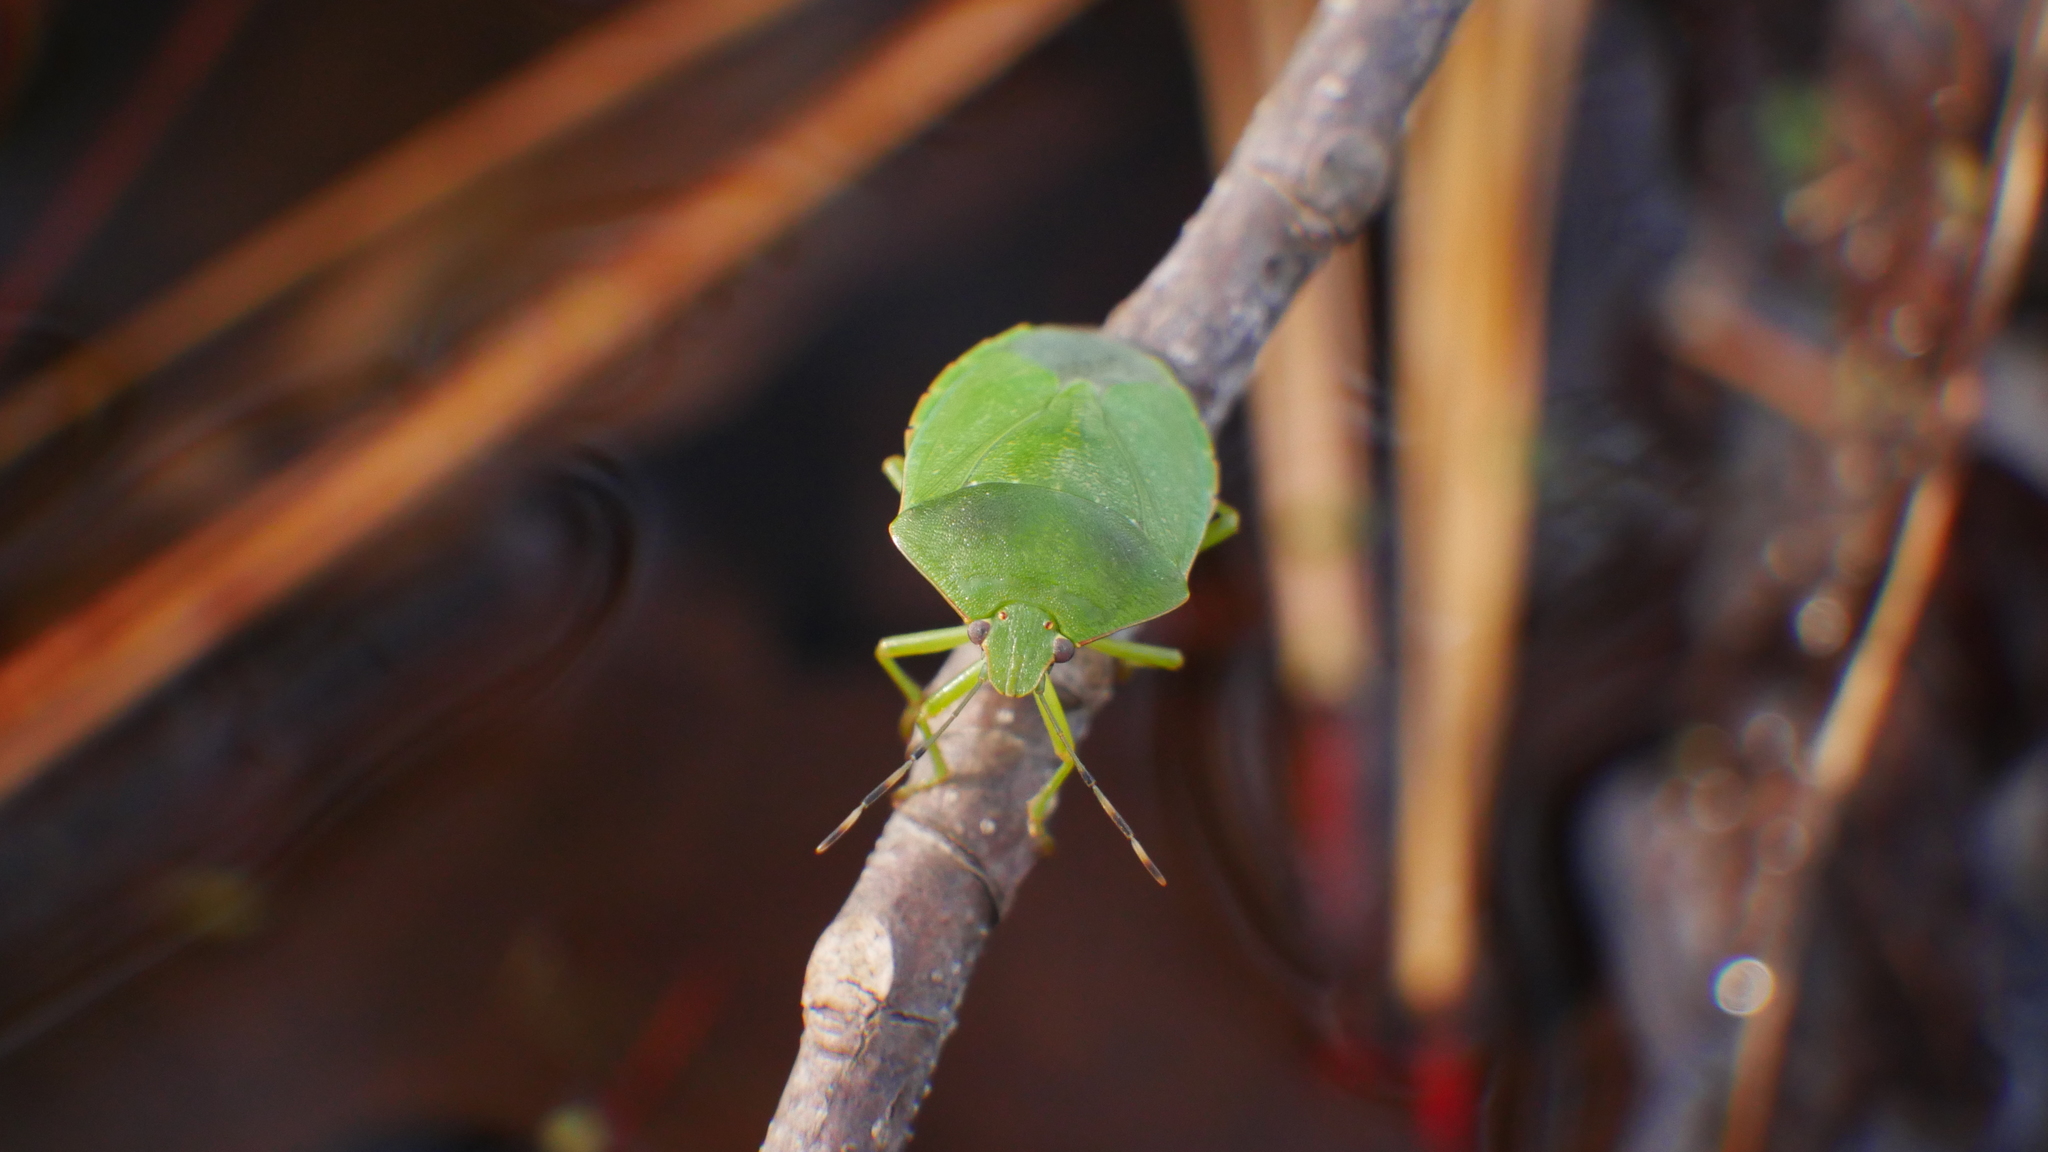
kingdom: Animalia
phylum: Arthropoda
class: Insecta
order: Hemiptera
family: Pentatomidae
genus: Chinavia
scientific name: Chinavia hilaris
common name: Green stink bug
